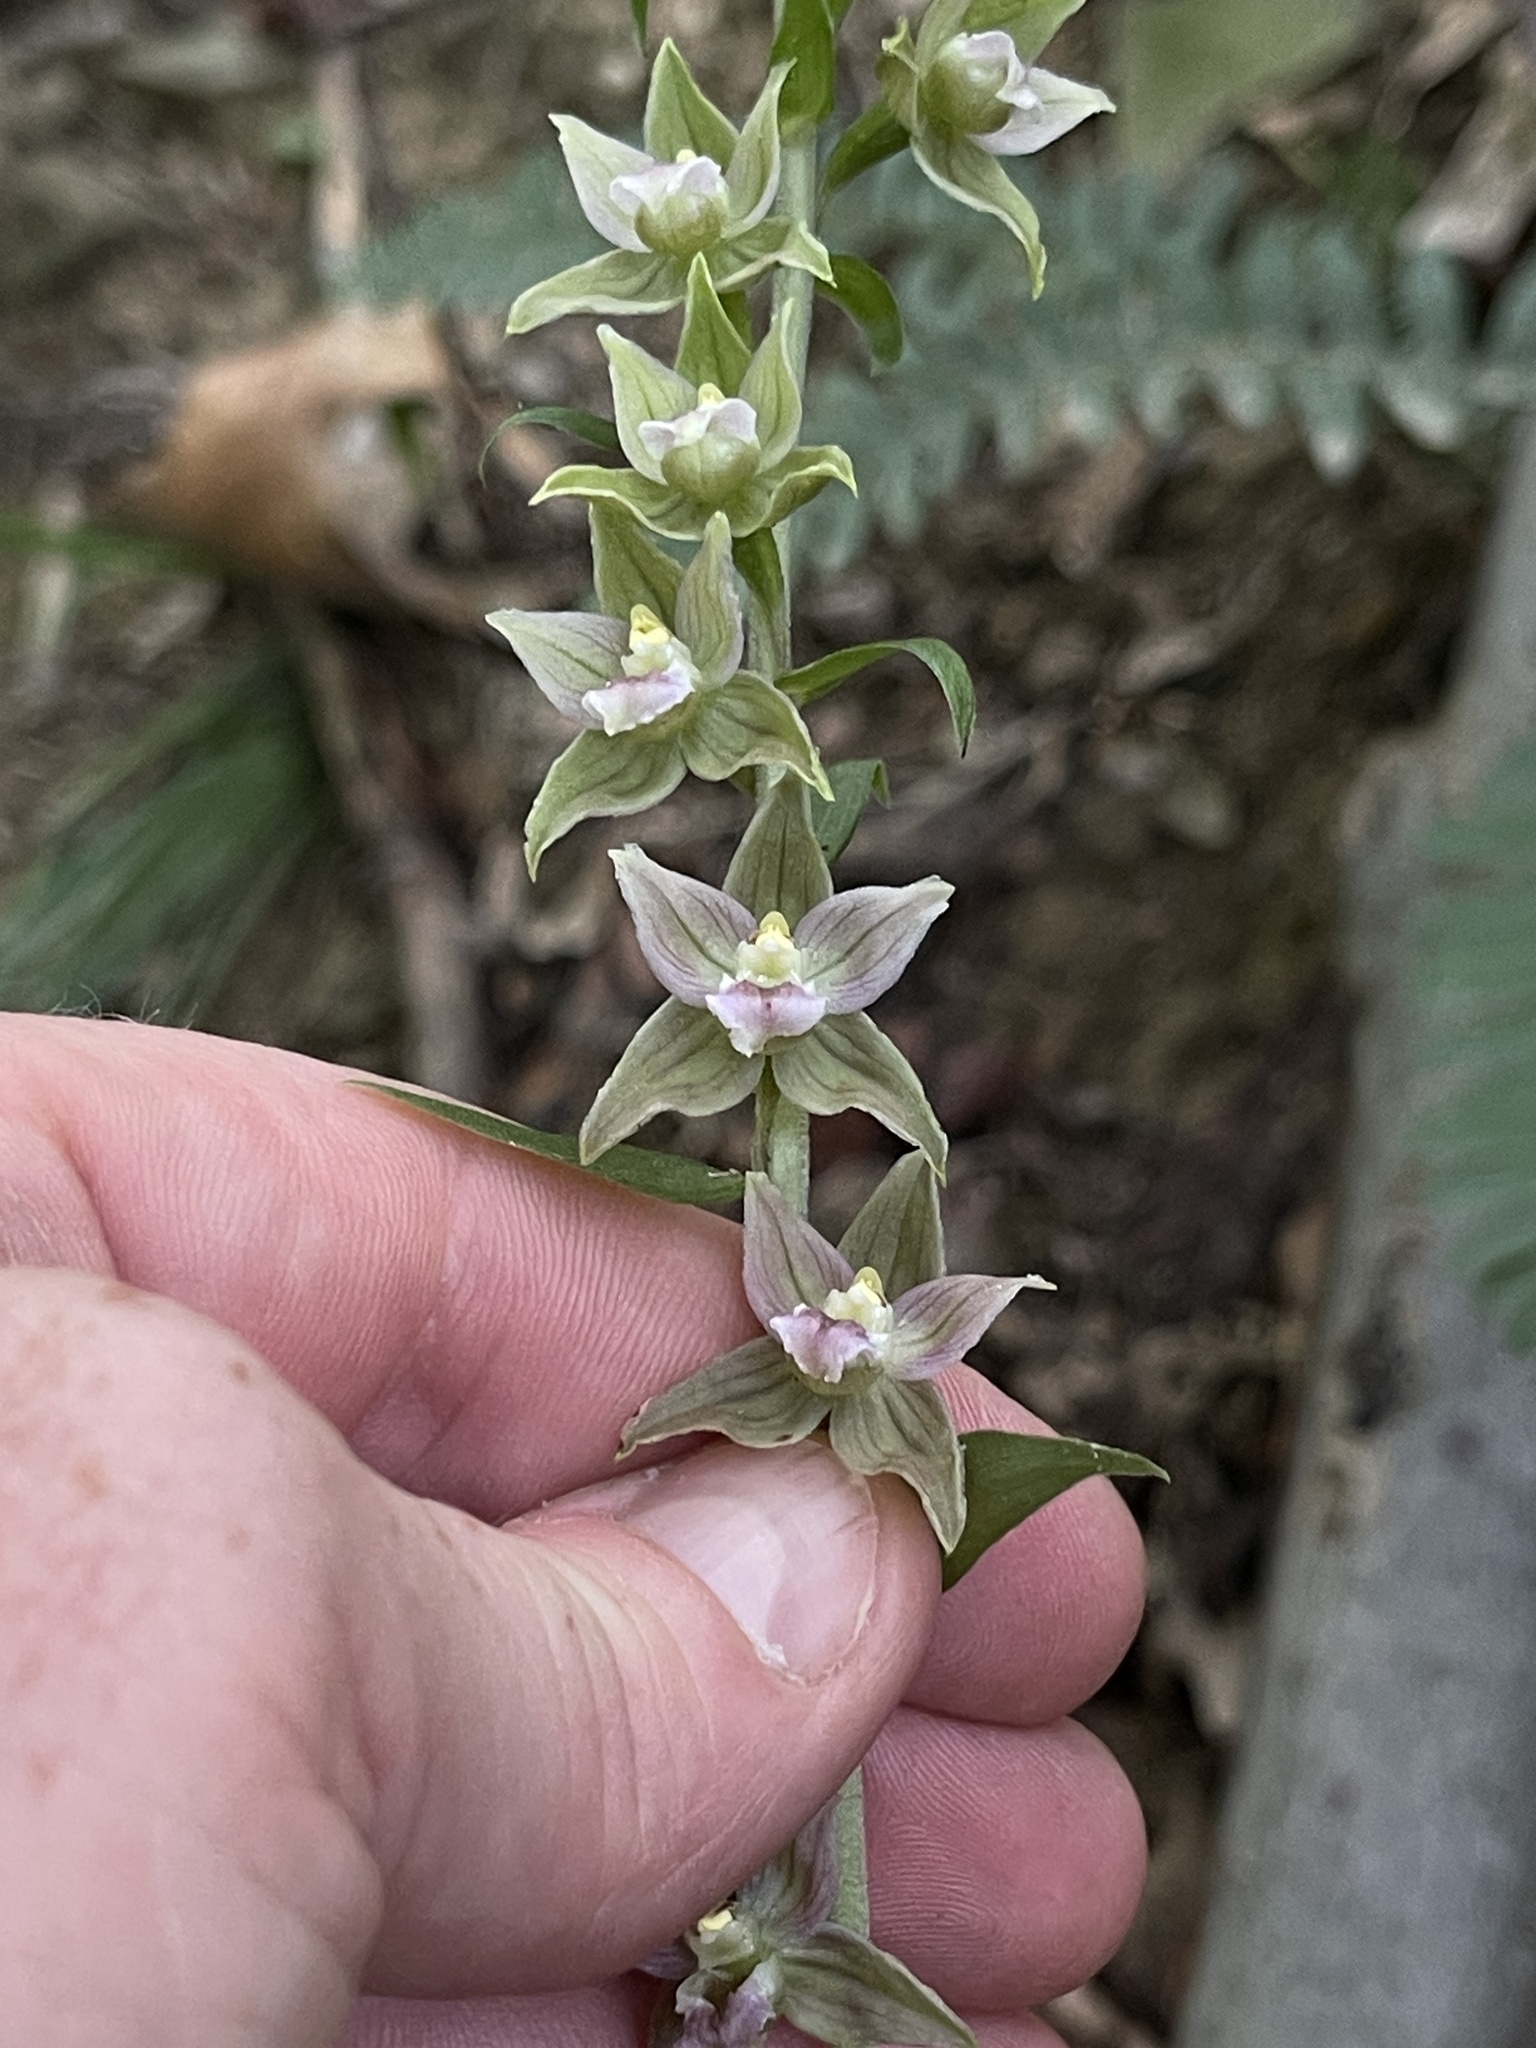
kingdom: Plantae
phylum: Tracheophyta
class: Liliopsida
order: Asparagales
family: Orchidaceae
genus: Epipactis
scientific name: Epipactis helleborine
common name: Broad-leaved helleborine
